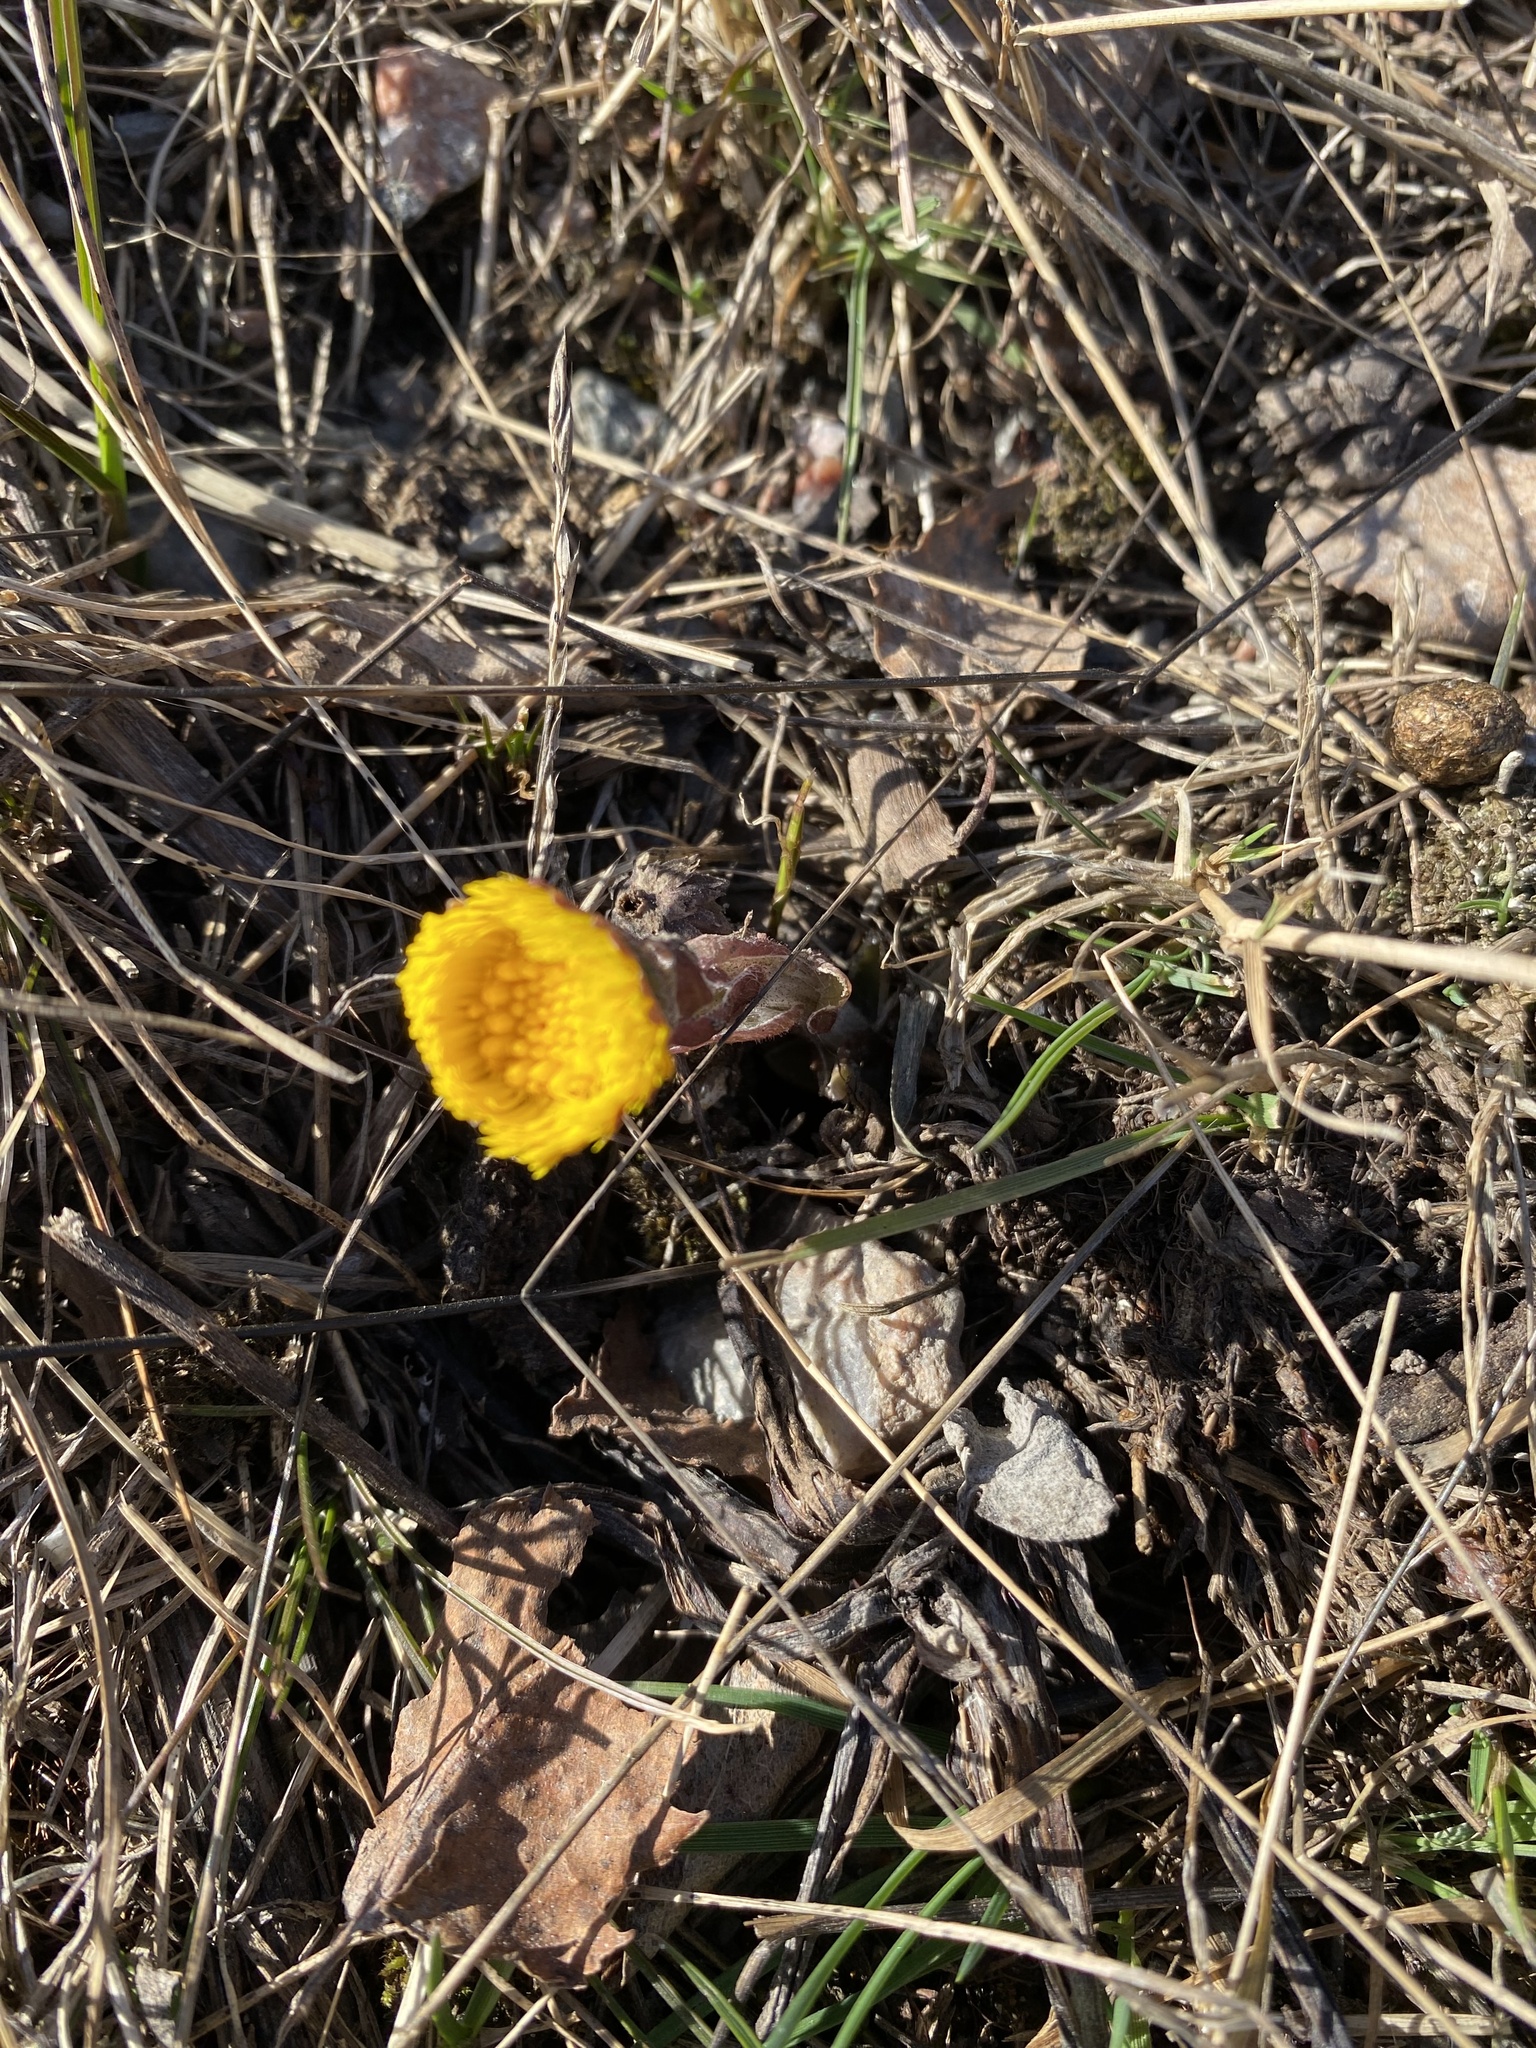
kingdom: Plantae
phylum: Tracheophyta
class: Magnoliopsida
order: Asterales
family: Asteraceae
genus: Tussilago
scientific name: Tussilago farfara
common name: Coltsfoot
